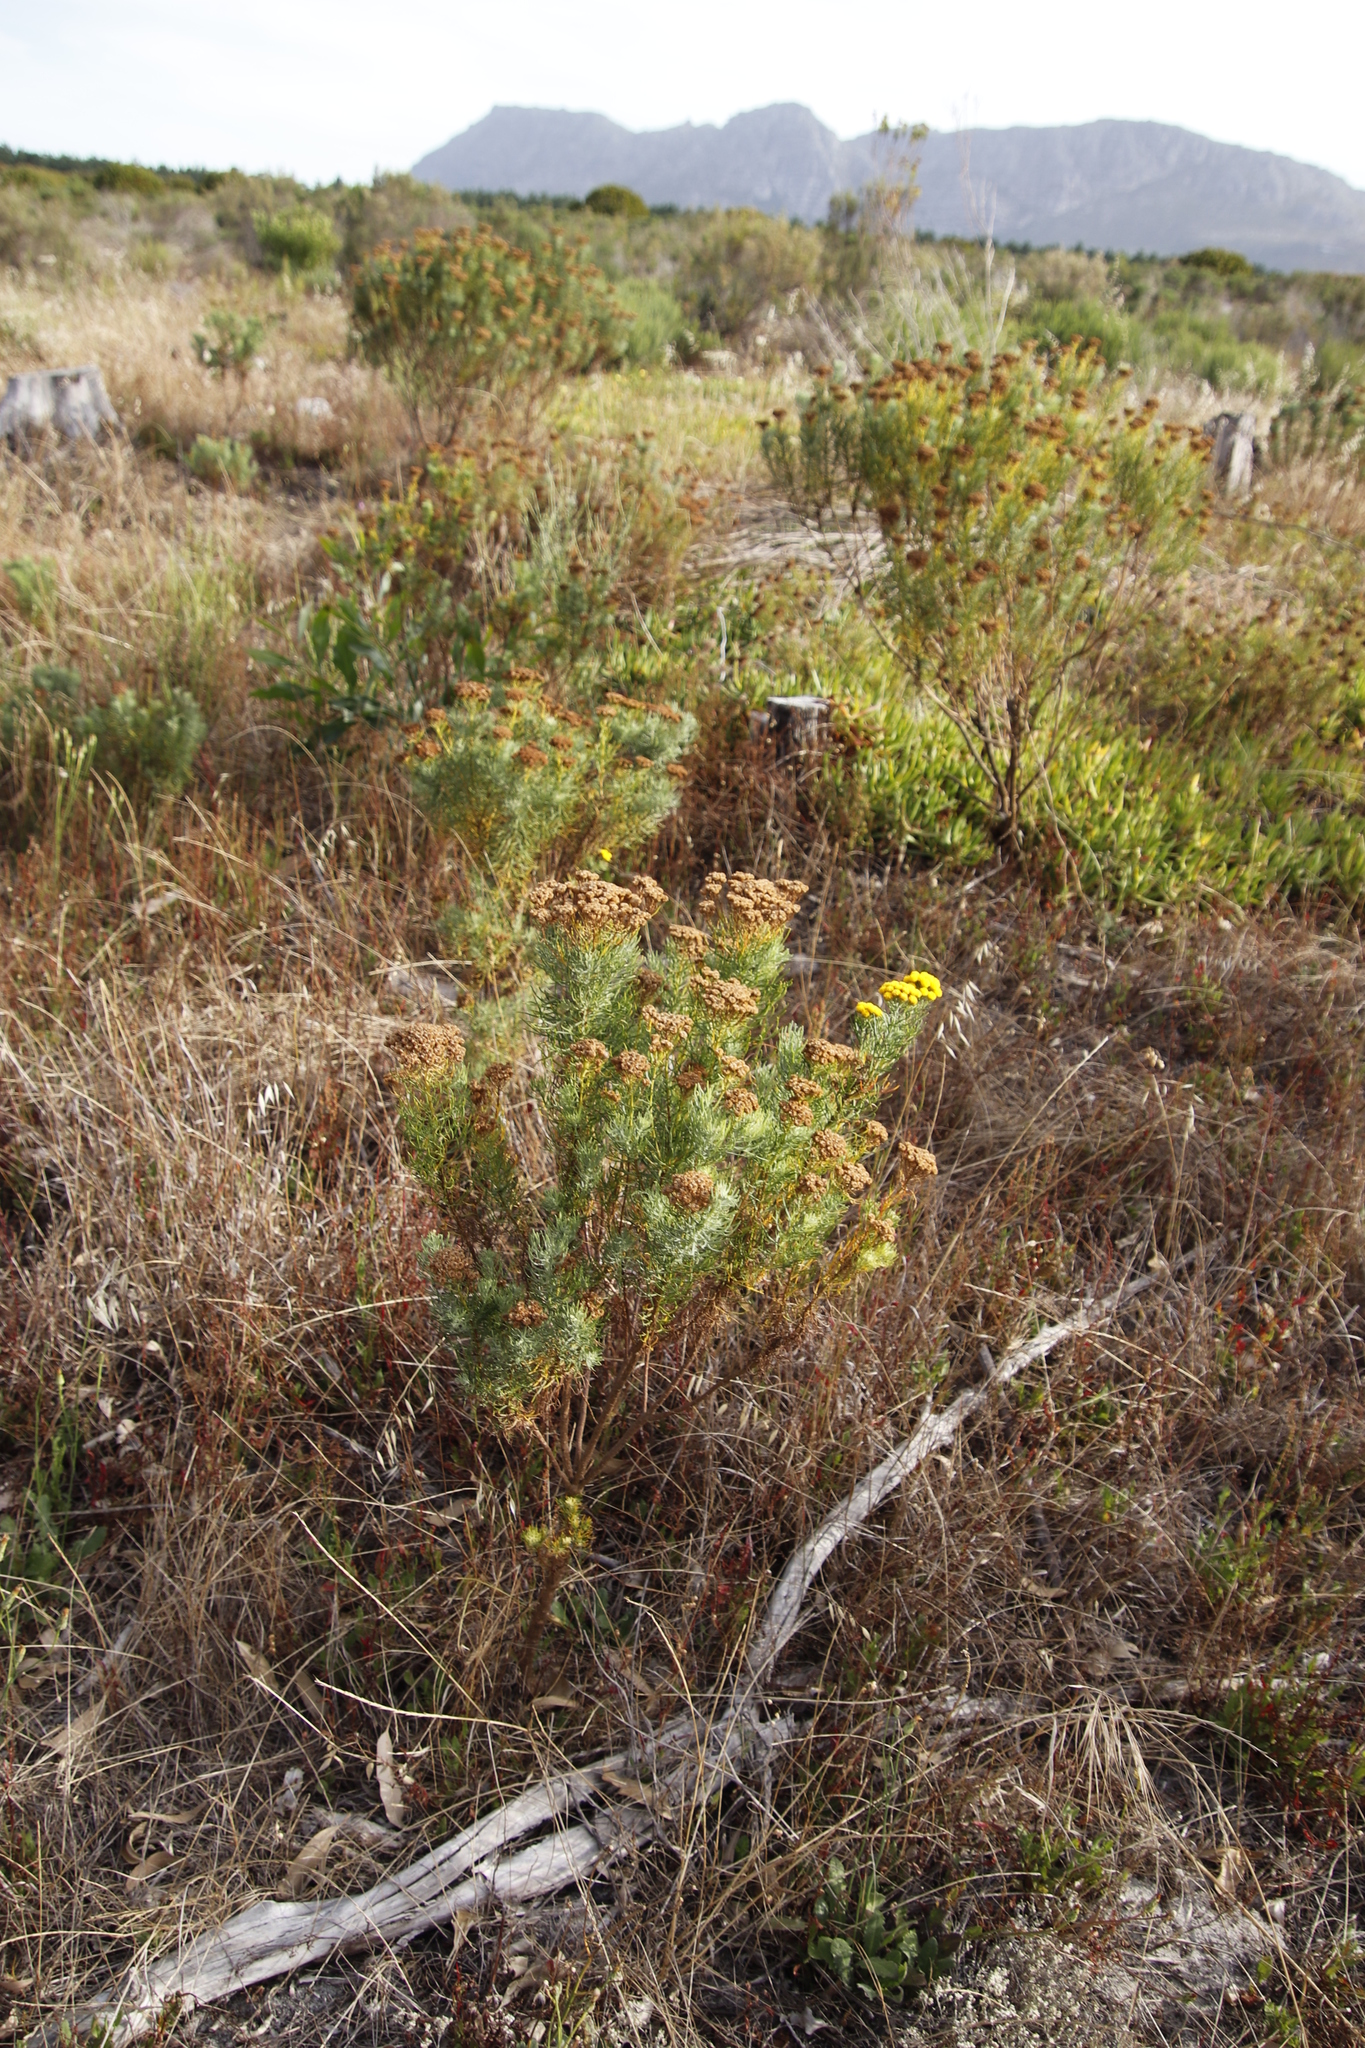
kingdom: Plantae
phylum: Tracheophyta
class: Magnoliopsida
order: Asterales
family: Asteraceae
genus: Athanasia
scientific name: Athanasia crithmifolia
